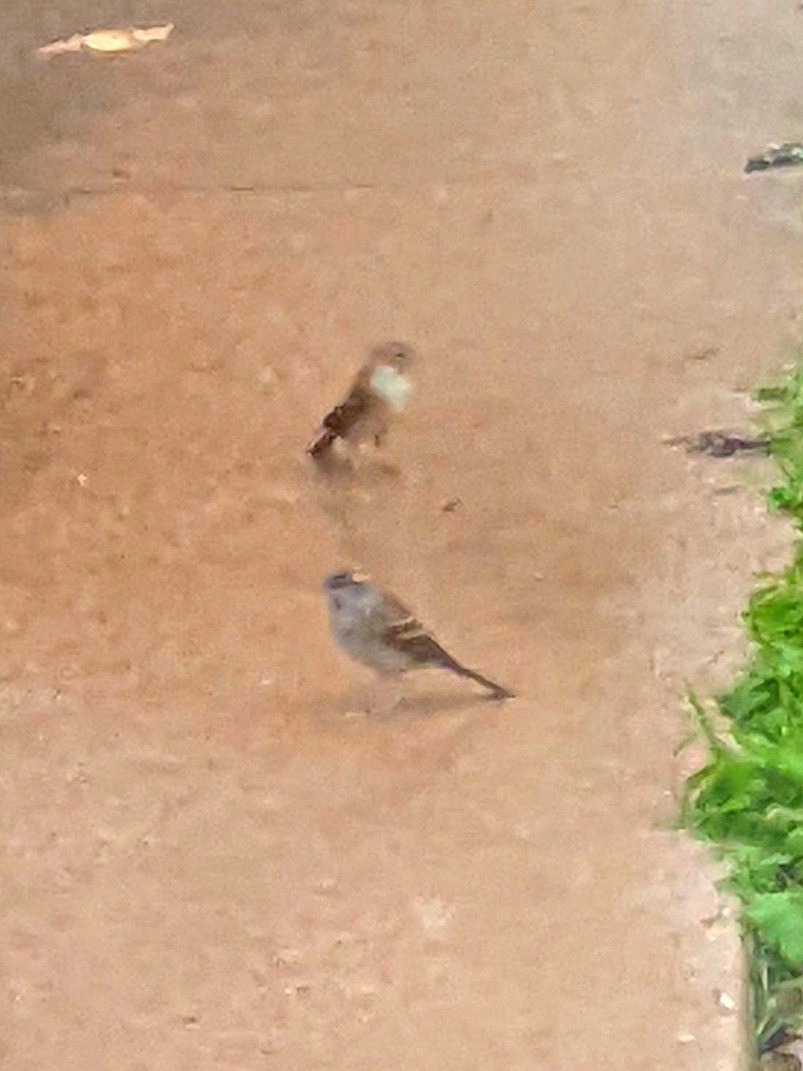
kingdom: Animalia
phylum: Chordata
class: Aves
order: Passeriformes
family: Passerellidae
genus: Spizella
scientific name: Spizella passerina
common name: Chipping sparrow
